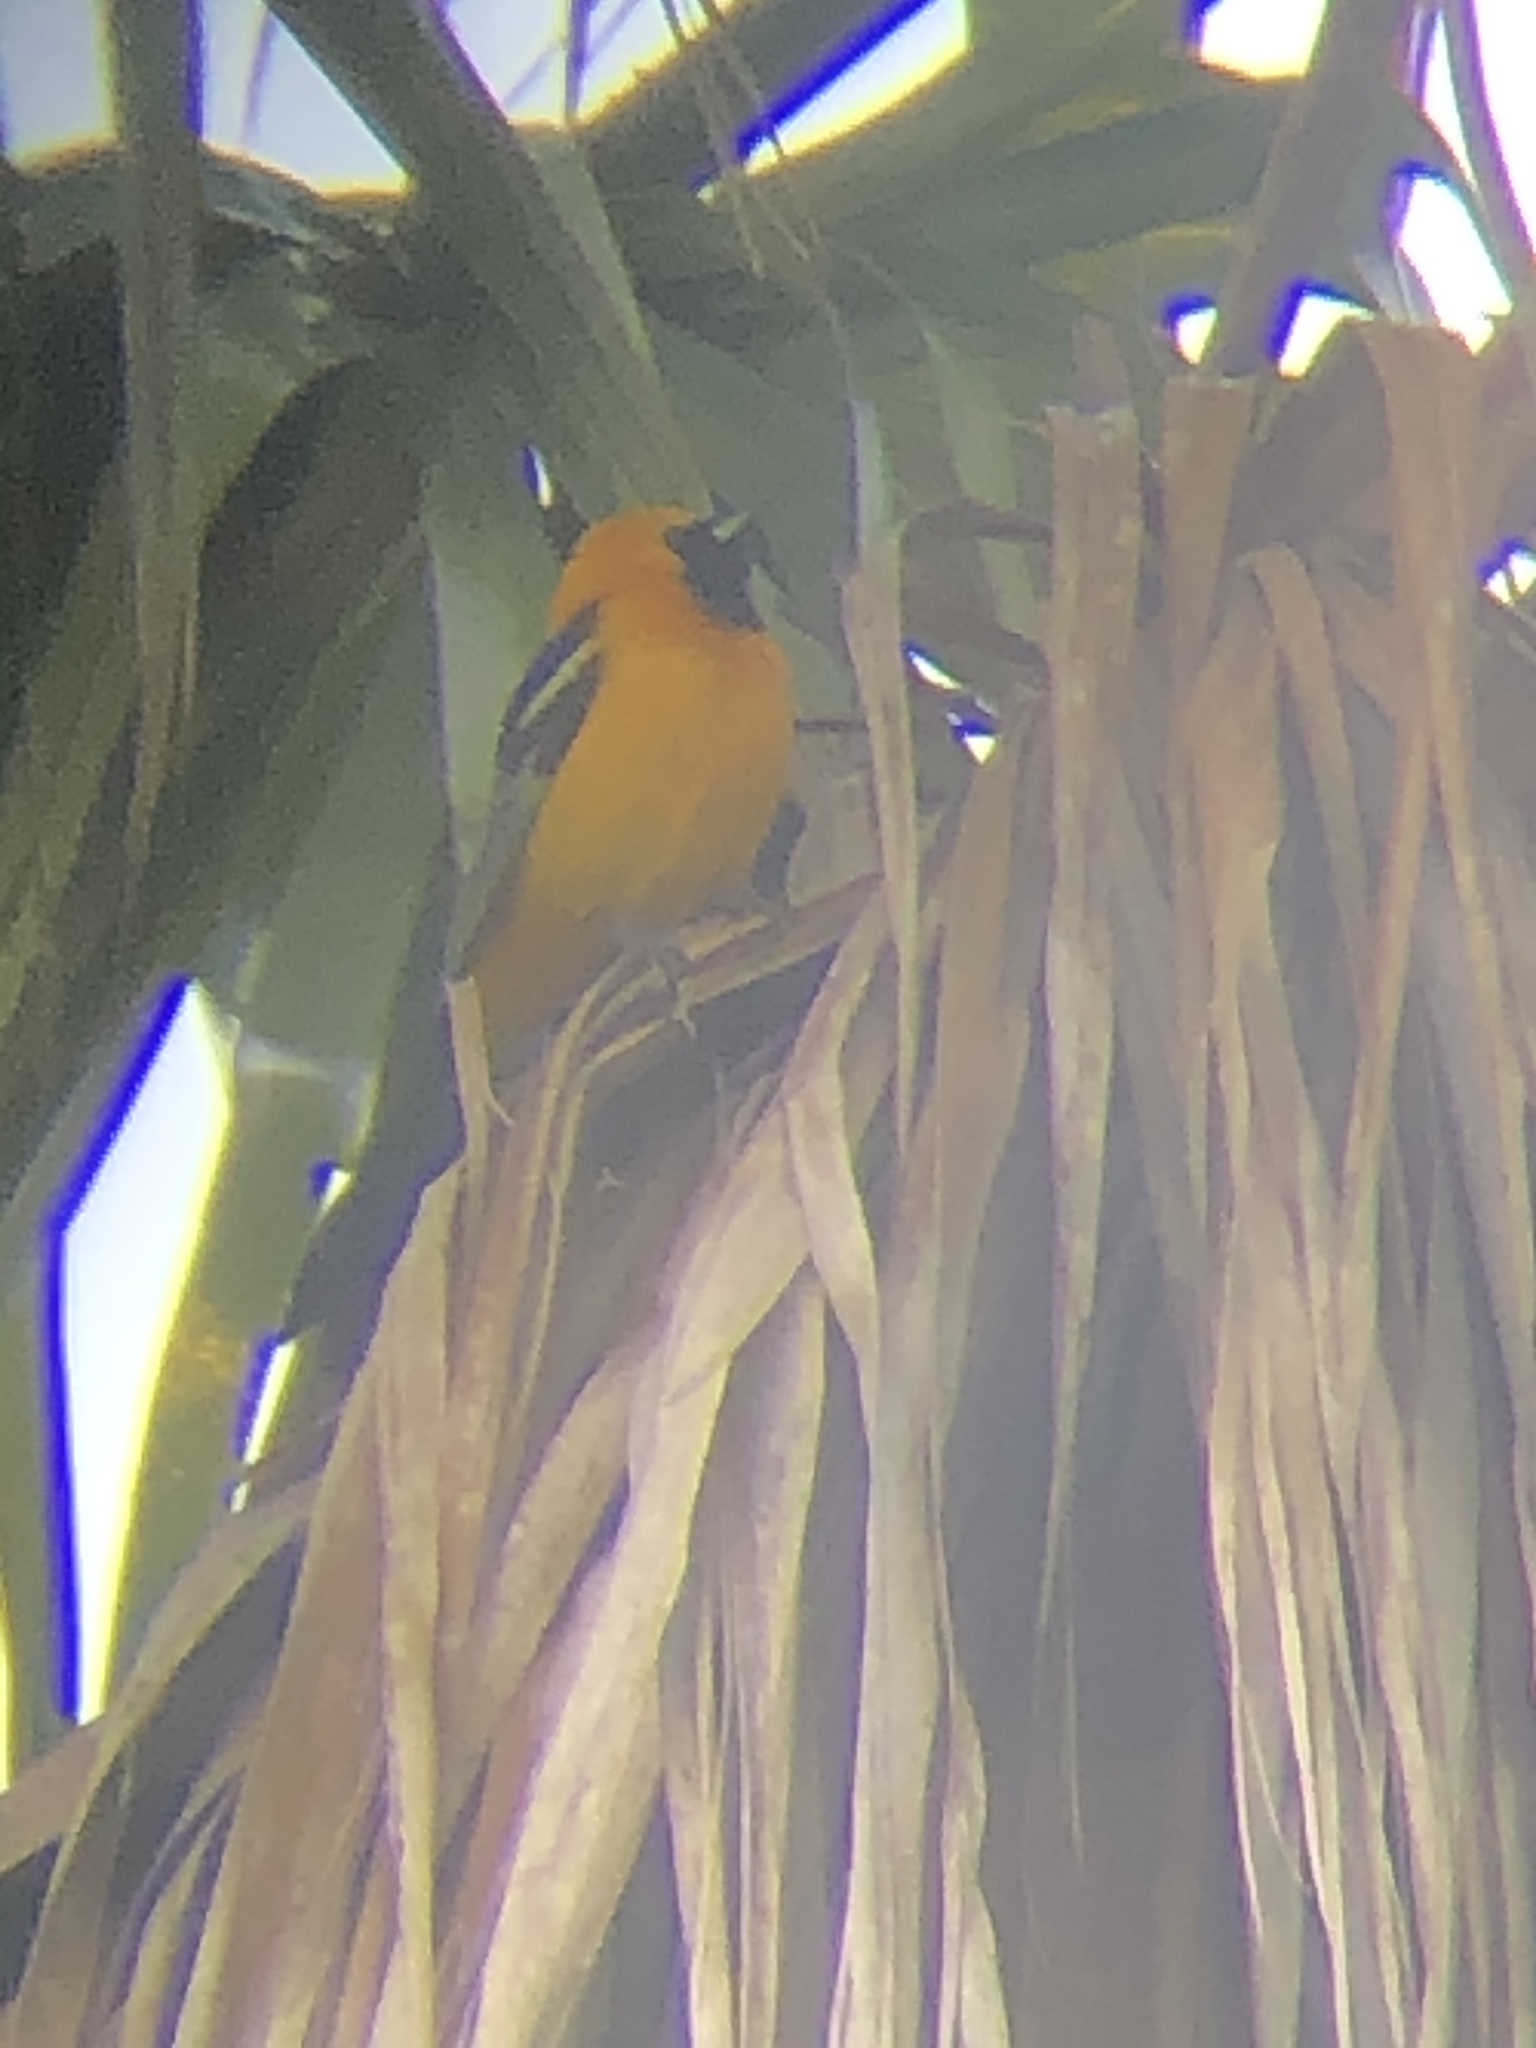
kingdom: Animalia
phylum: Chordata
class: Aves
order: Passeriformes
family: Icteridae
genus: Icterus
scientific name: Icterus cucullatus
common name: Hooded oriole
